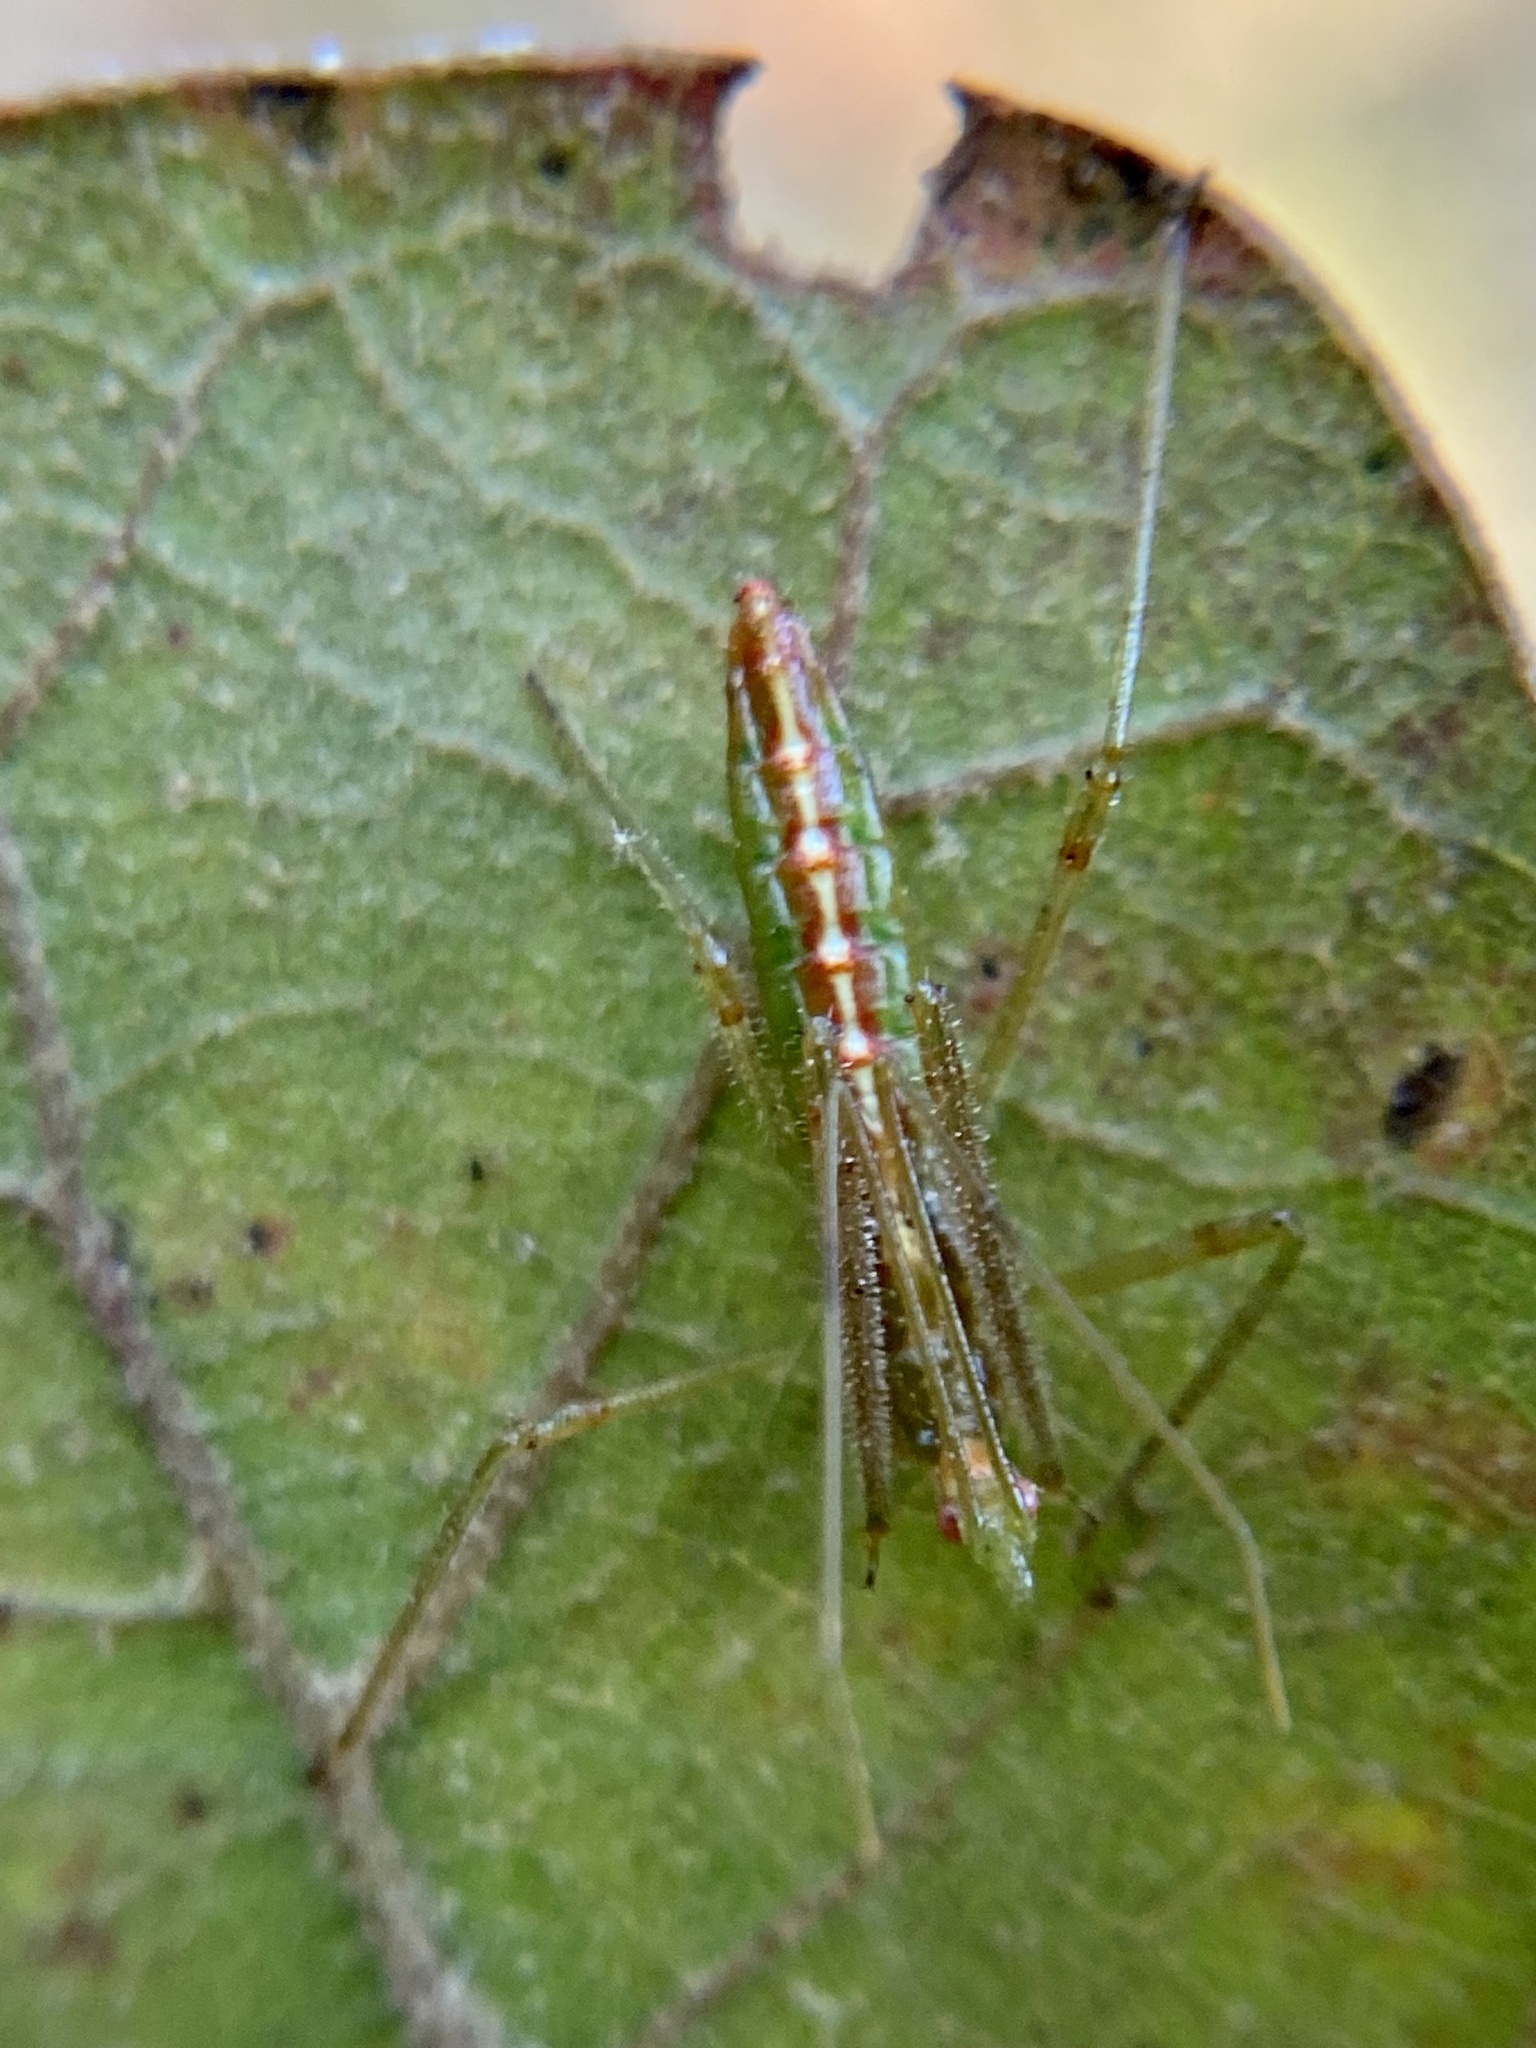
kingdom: Animalia
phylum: Arthropoda
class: Insecta
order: Hemiptera
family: Reduviidae
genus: Zelus
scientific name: Zelus luridus
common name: Pale green assassin bug
